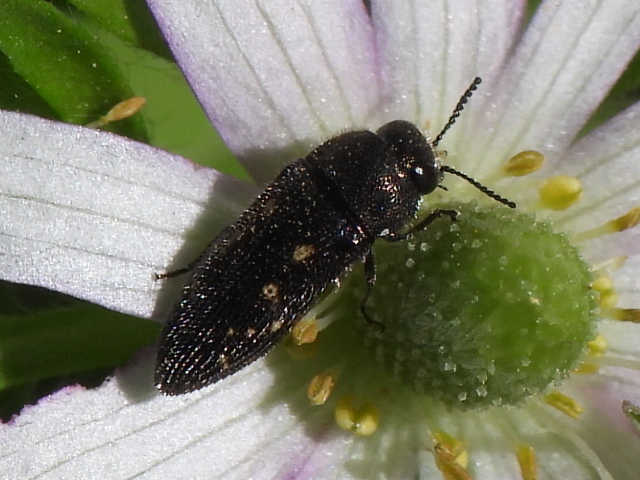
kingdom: Animalia
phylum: Arthropoda
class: Insecta
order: Coleoptera
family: Buprestidae
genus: Acmaeodera
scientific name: Acmaeodera tubulus
